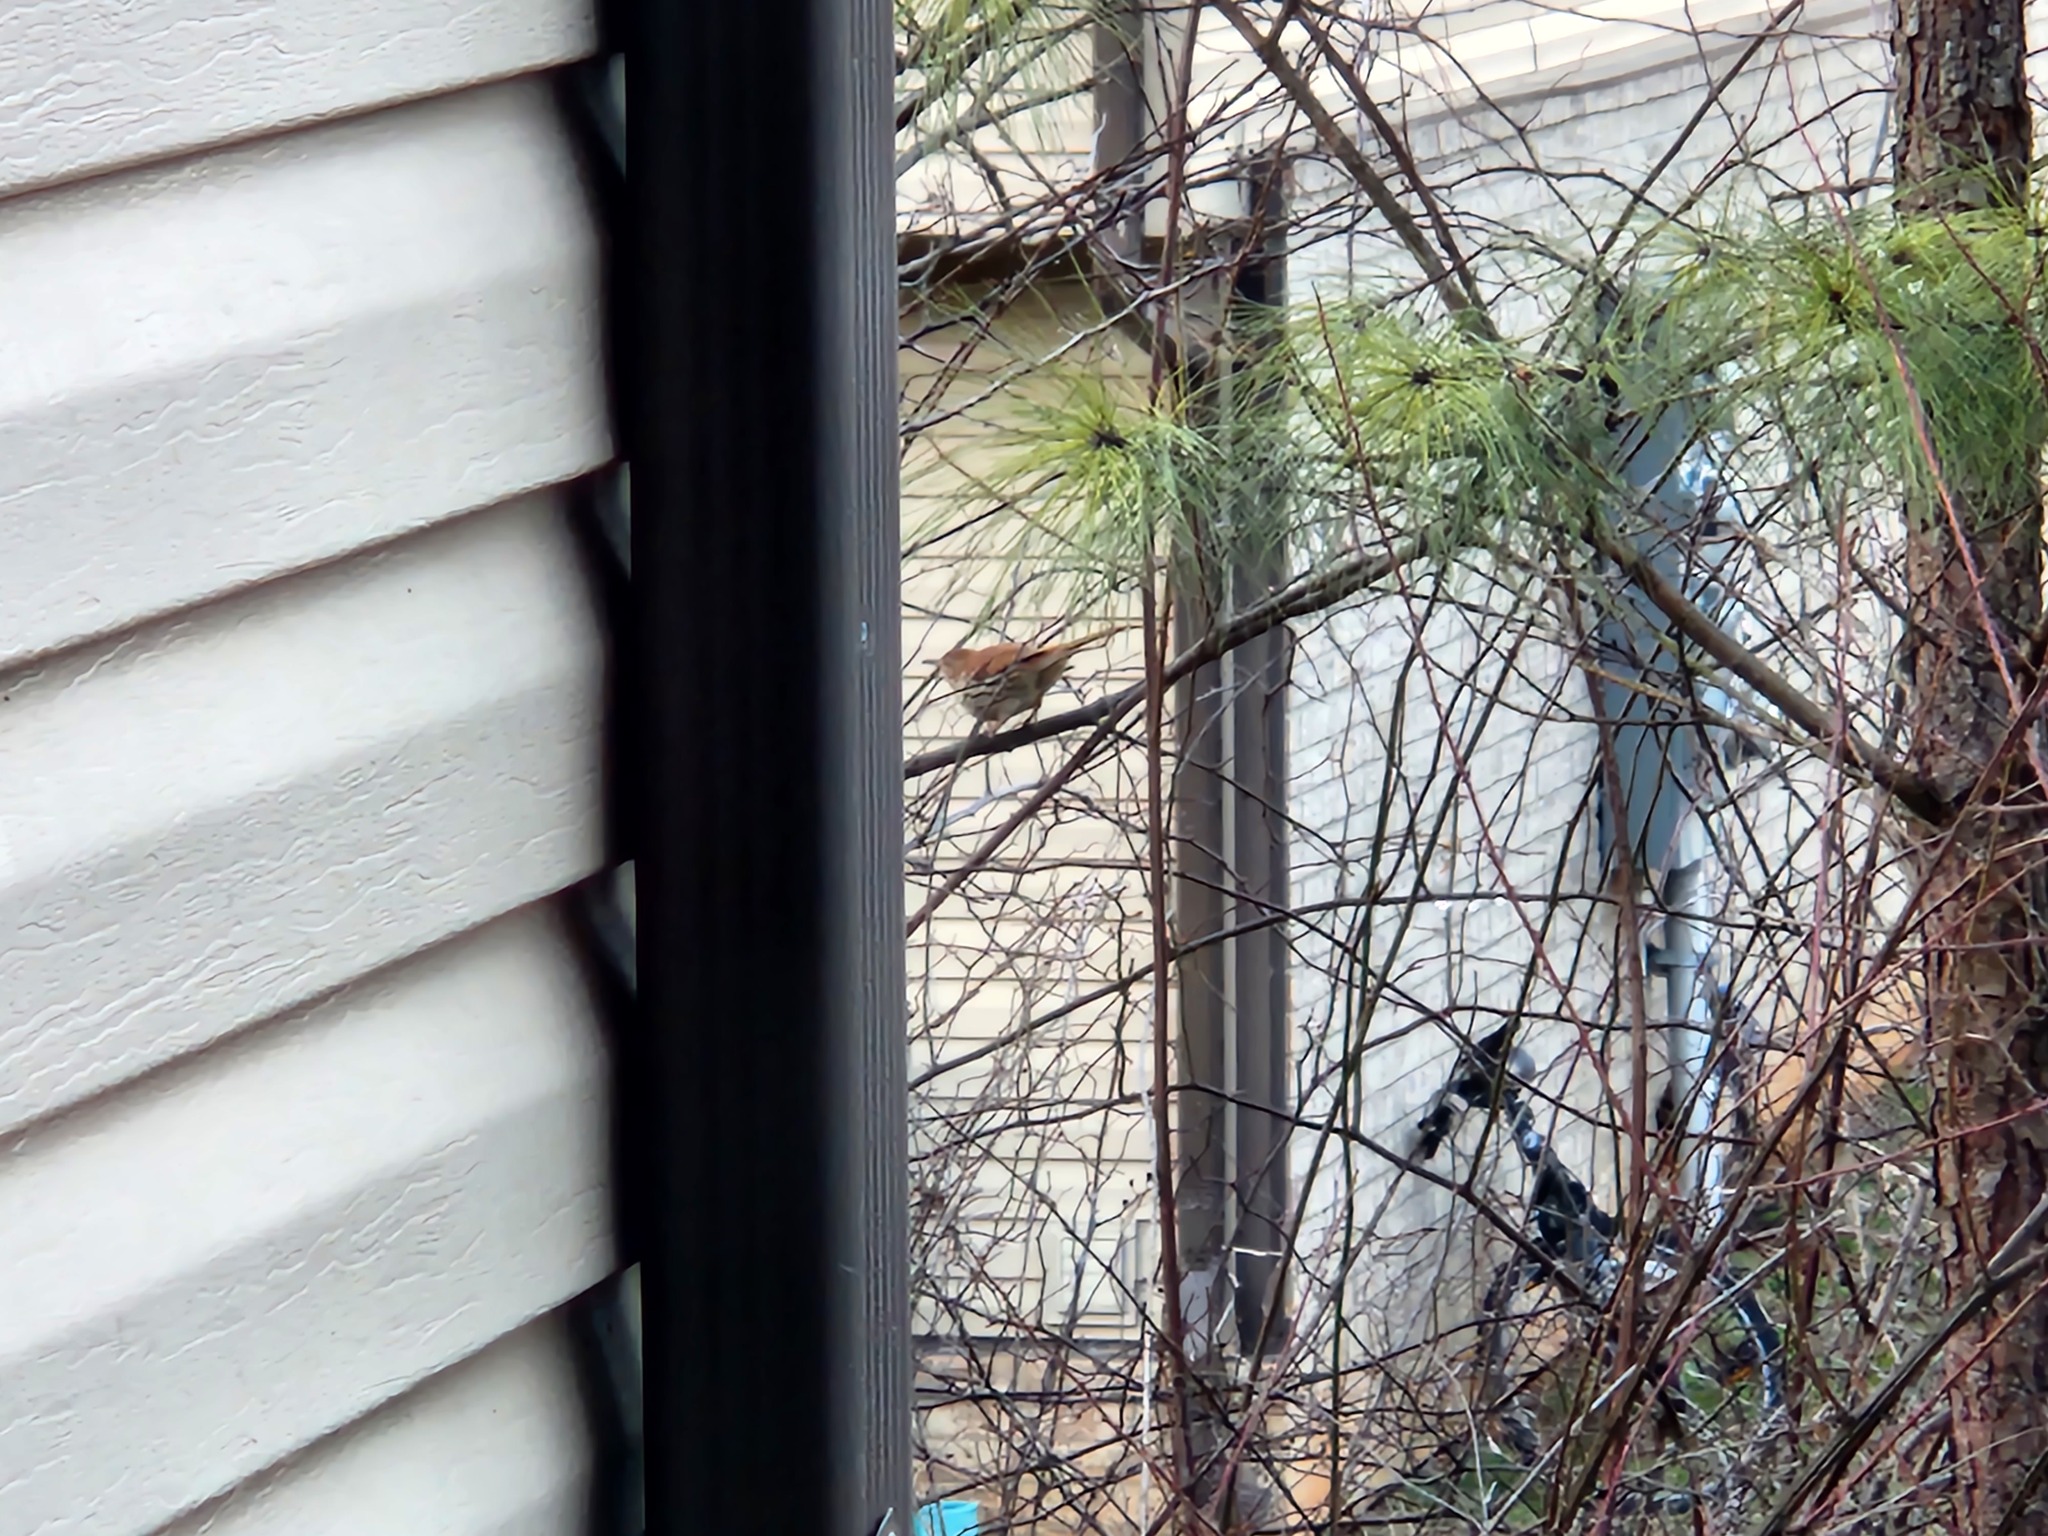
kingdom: Animalia
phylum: Chordata
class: Aves
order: Passeriformes
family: Mimidae
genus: Toxostoma
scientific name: Toxostoma rufum
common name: Brown thrasher
